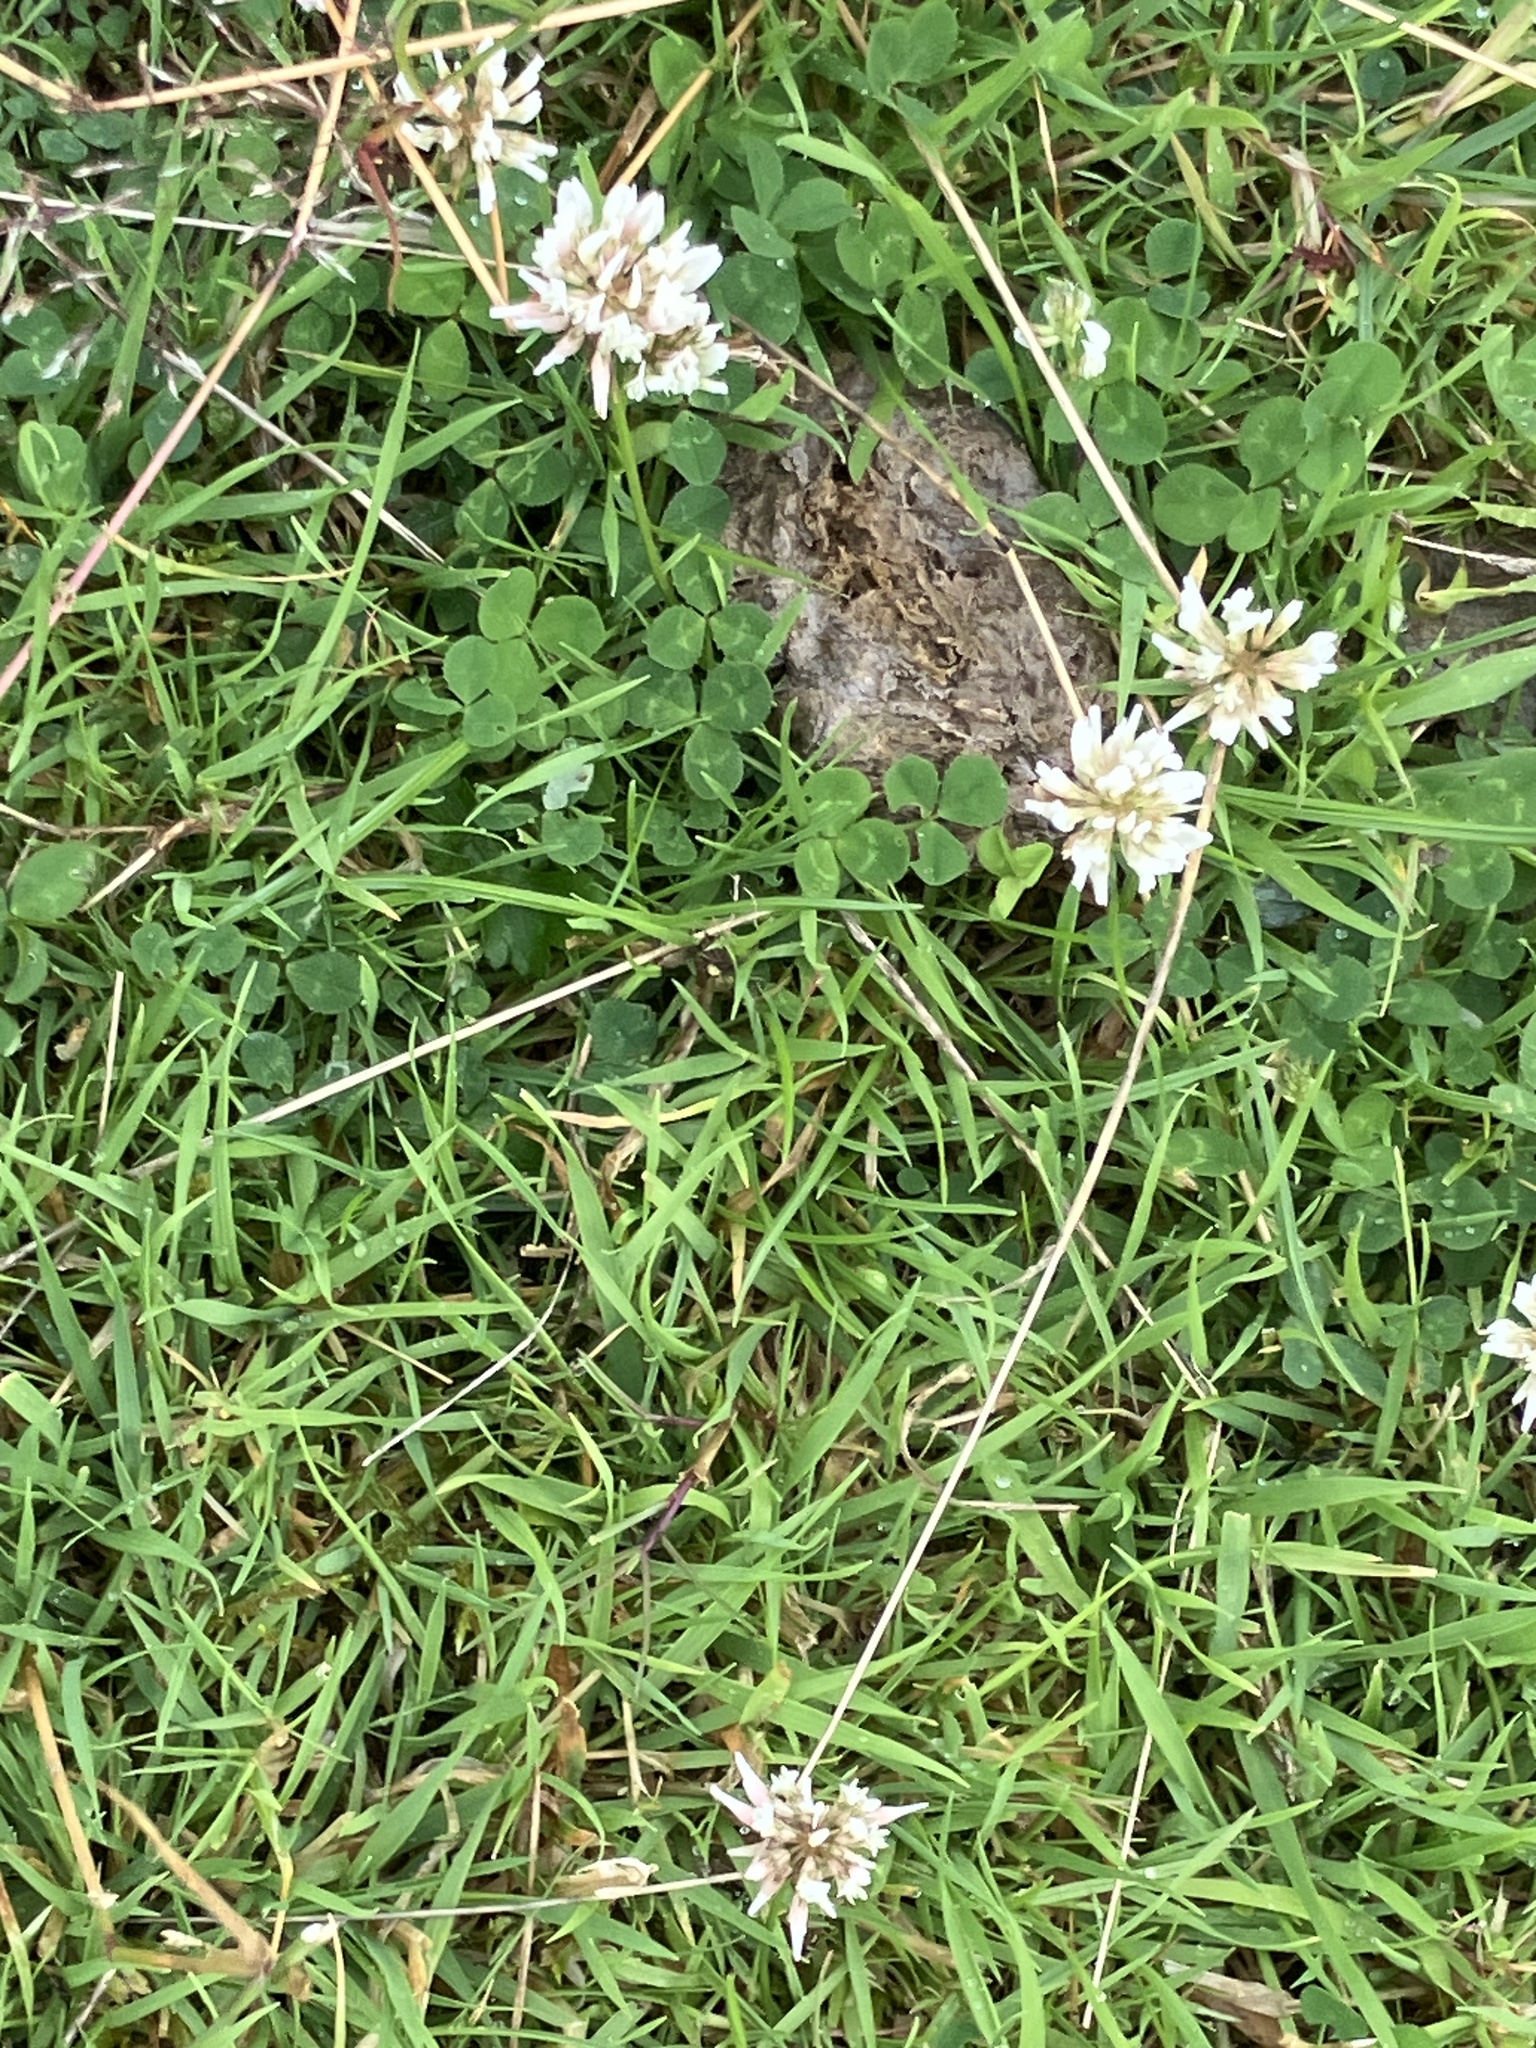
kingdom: Plantae
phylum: Tracheophyta
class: Magnoliopsida
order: Fabales
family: Fabaceae
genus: Trifolium
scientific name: Trifolium repens
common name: White clover
